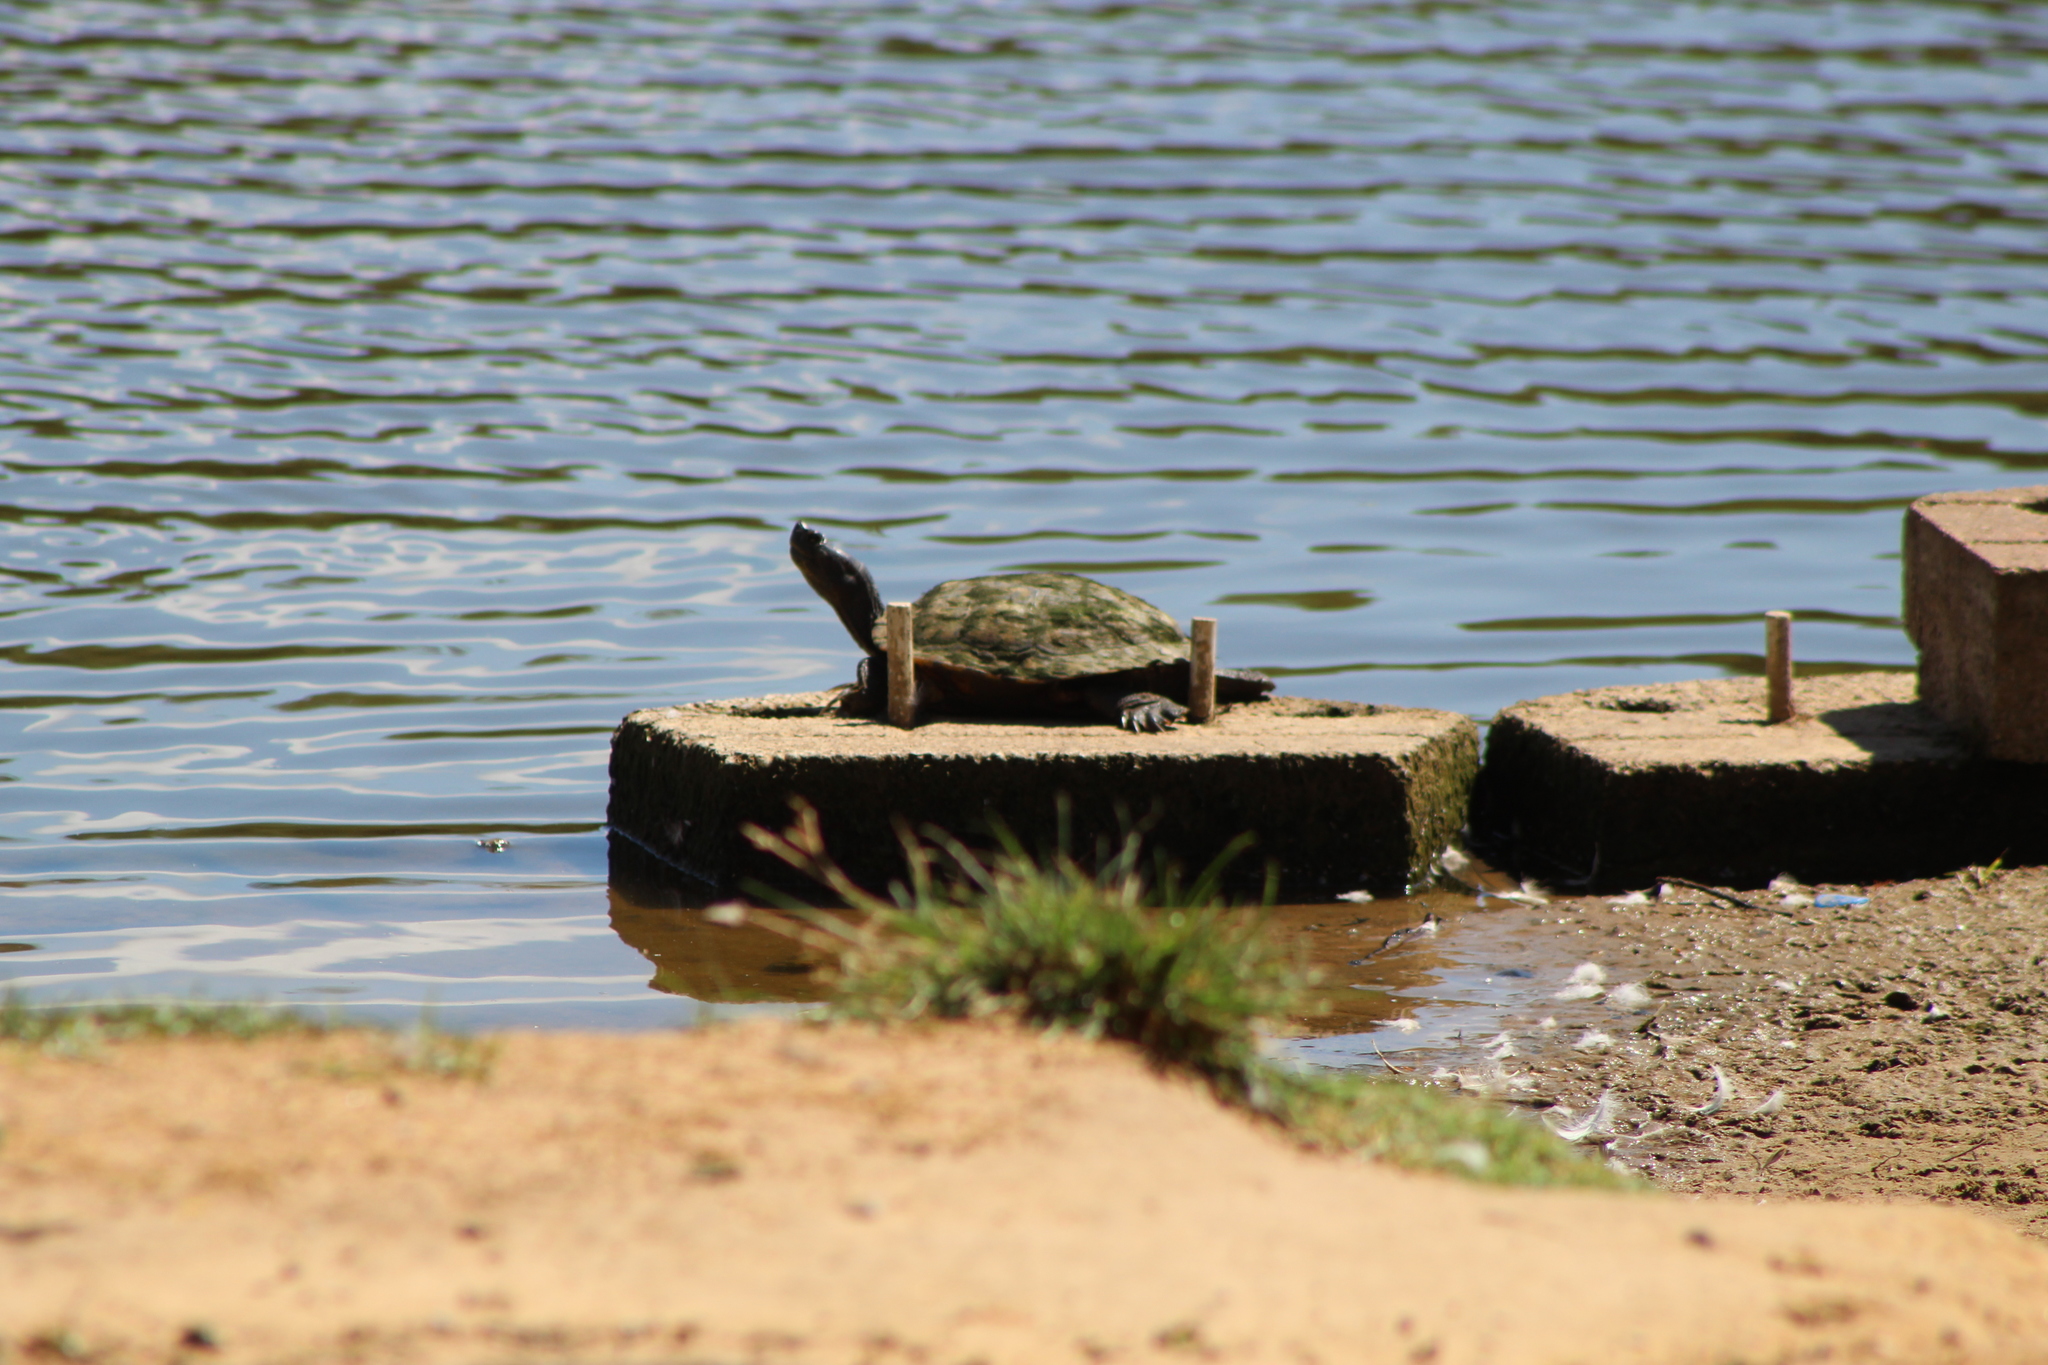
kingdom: Animalia
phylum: Chordata
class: Testudines
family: Emydidae
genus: Trachemys
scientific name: Trachemys scripta
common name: Slider
